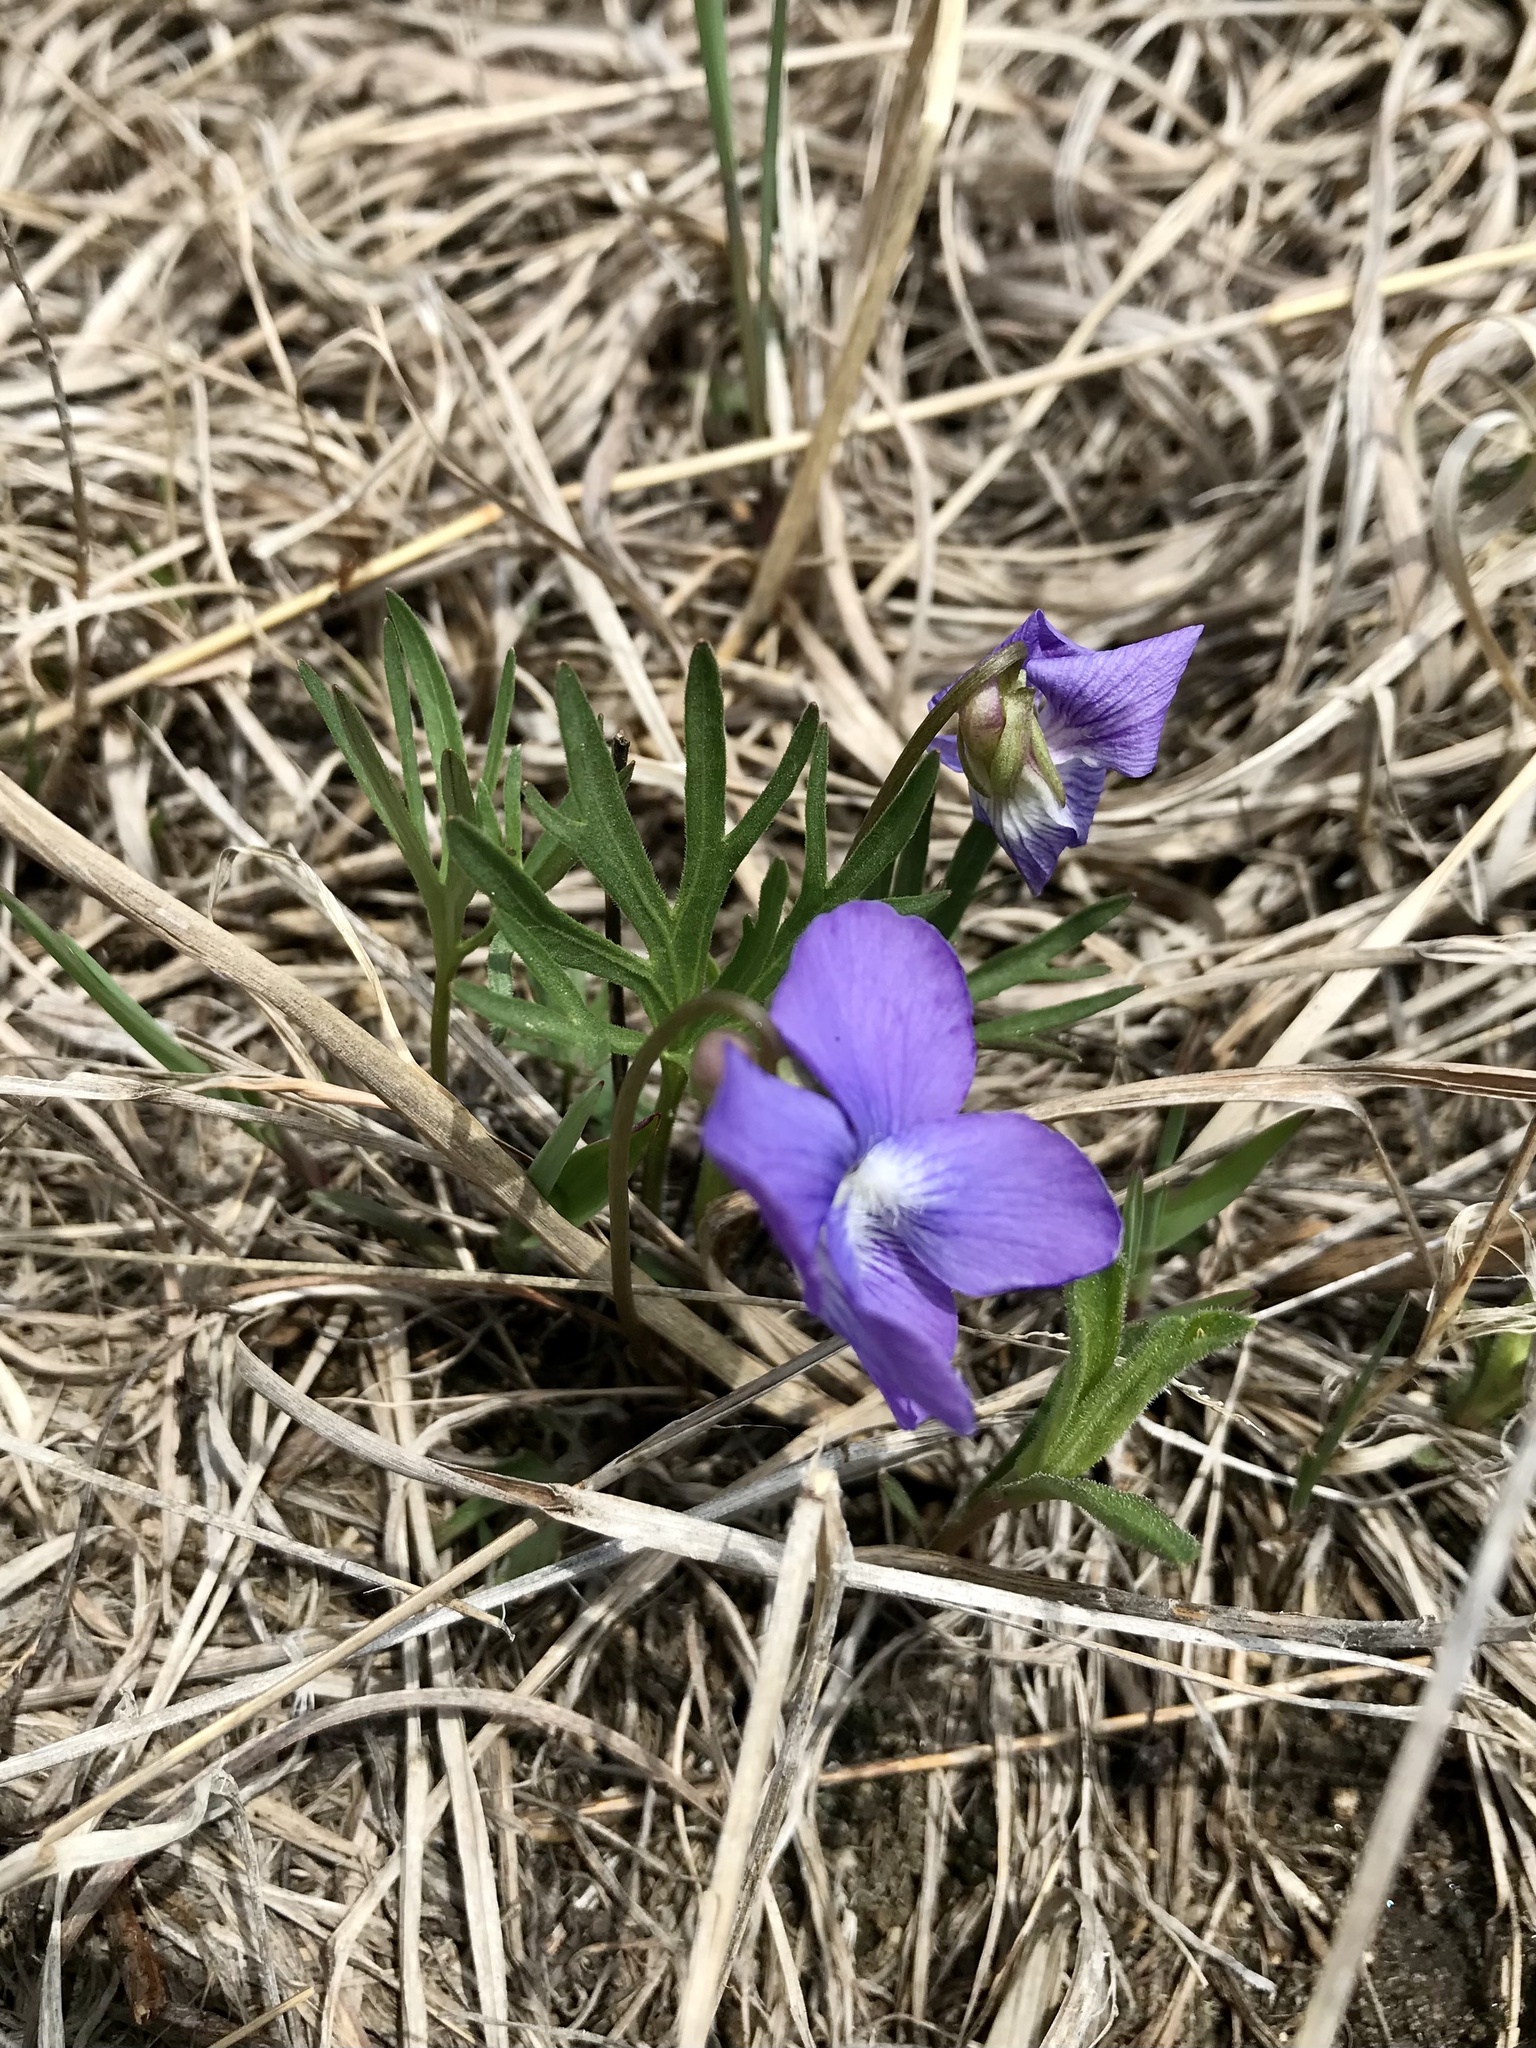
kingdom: Plantae
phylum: Tracheophyta
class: Magnoliopsida
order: Malpighiales
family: Violaceae
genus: Viola
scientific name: Viola pedatifida
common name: Prairie violet
